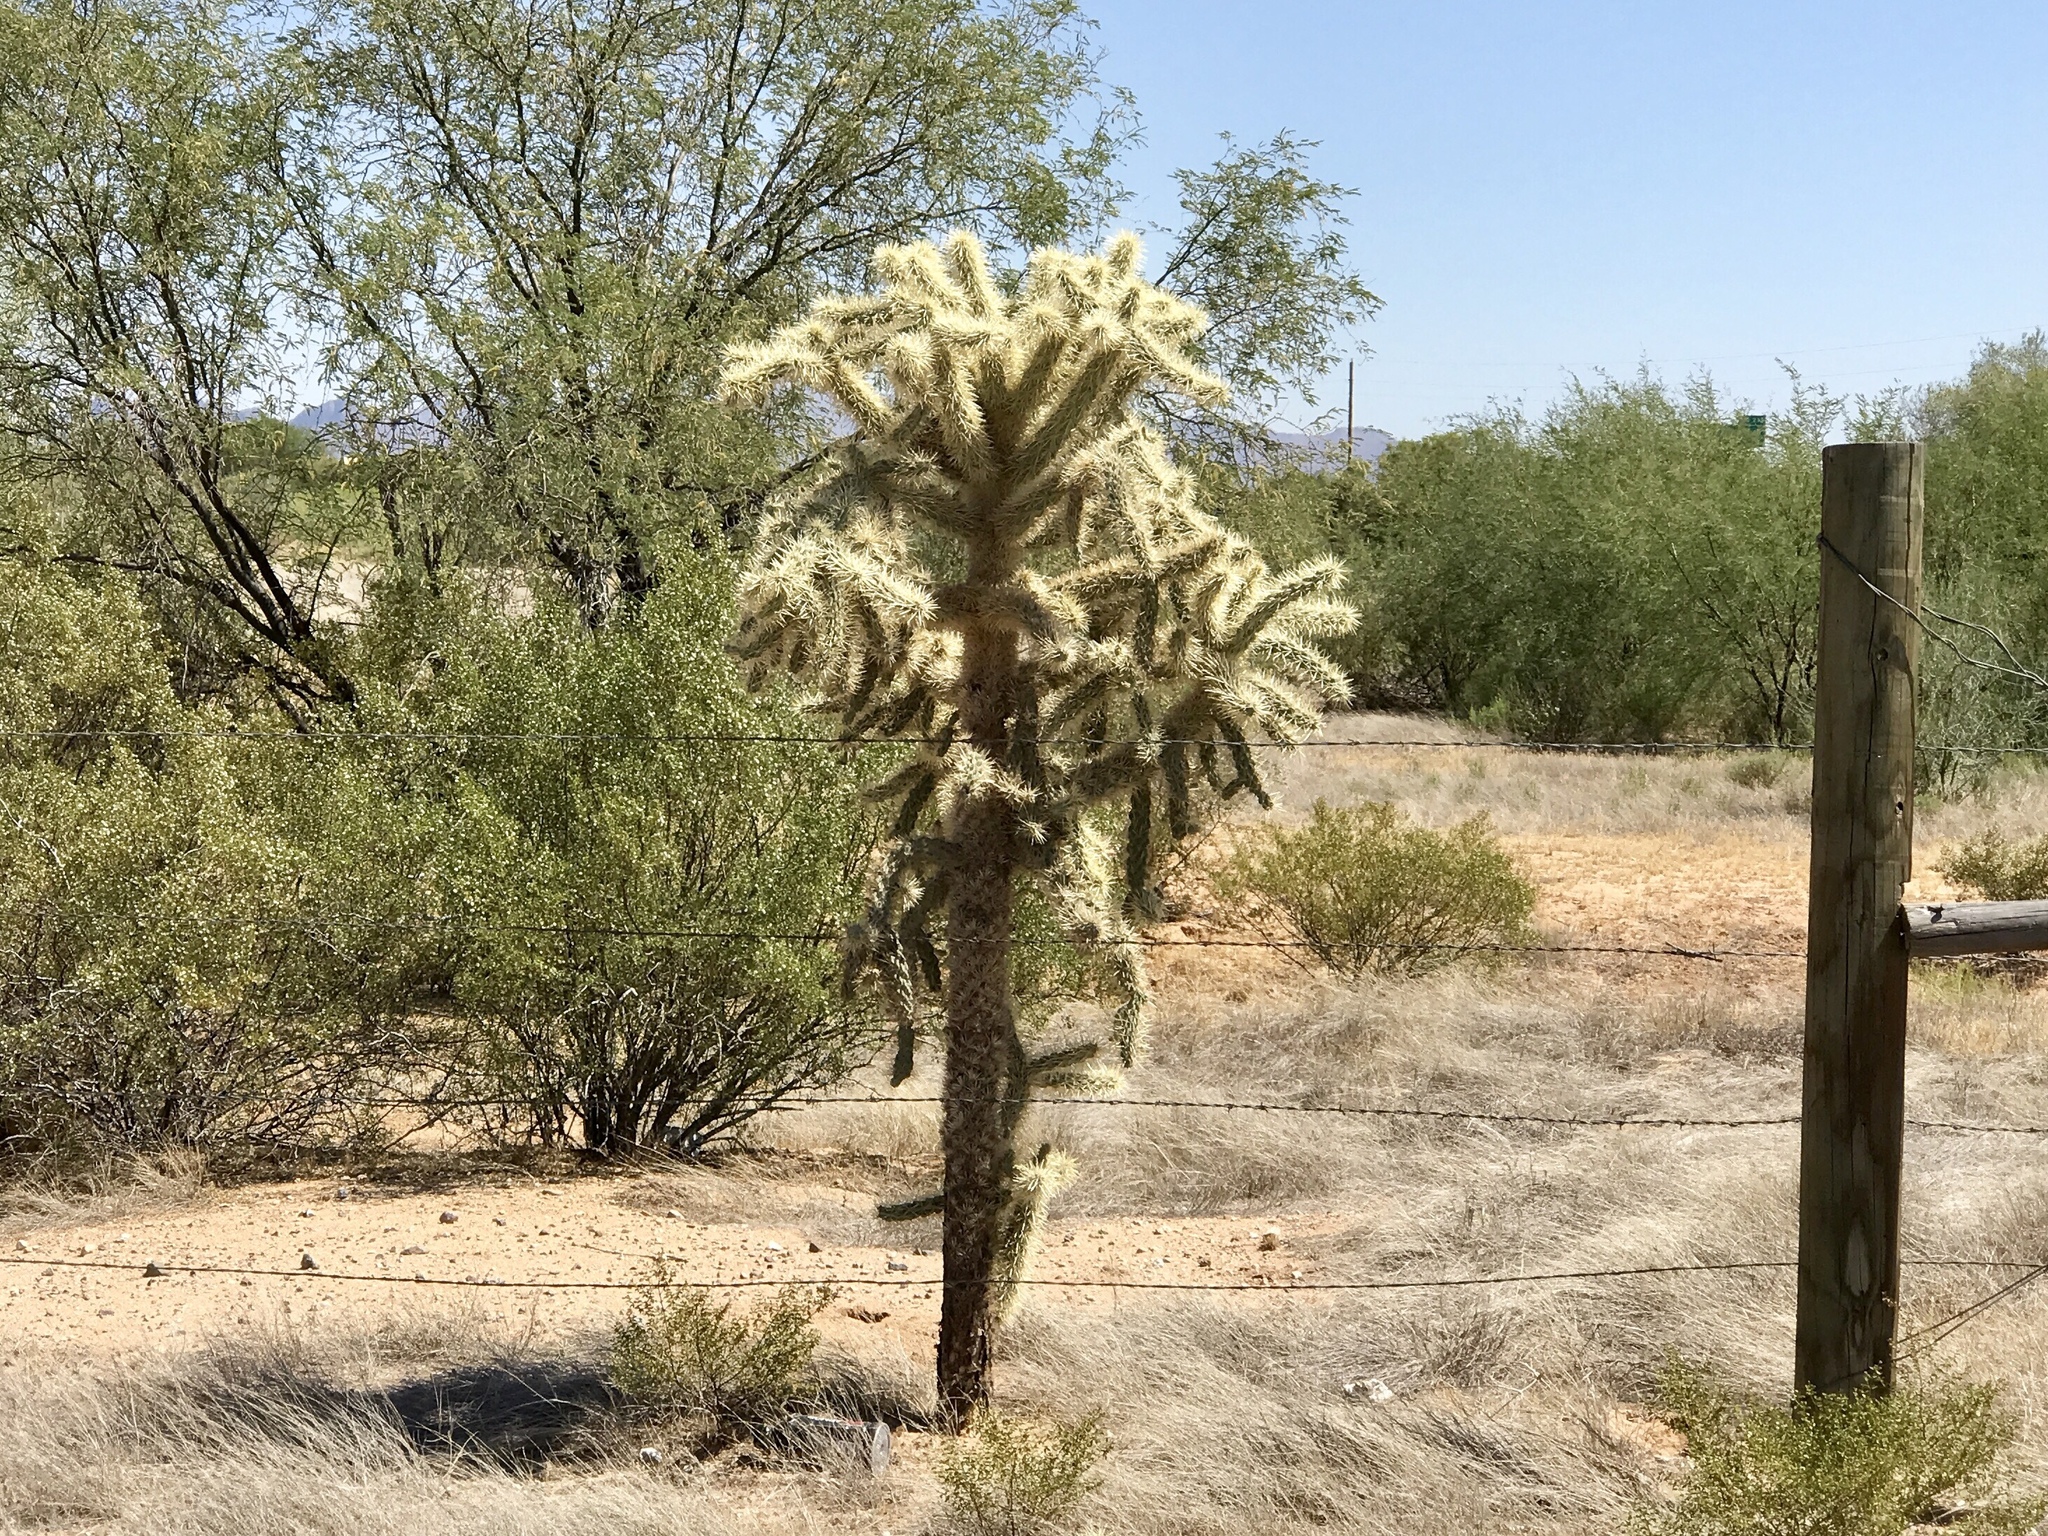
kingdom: Plantae
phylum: Tracheophyta
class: Magnoliopsida
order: Caryophyllales
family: Cactaceae
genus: Cylindropuntia
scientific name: Cylindropuntia fulgida
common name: Jumping cholla
